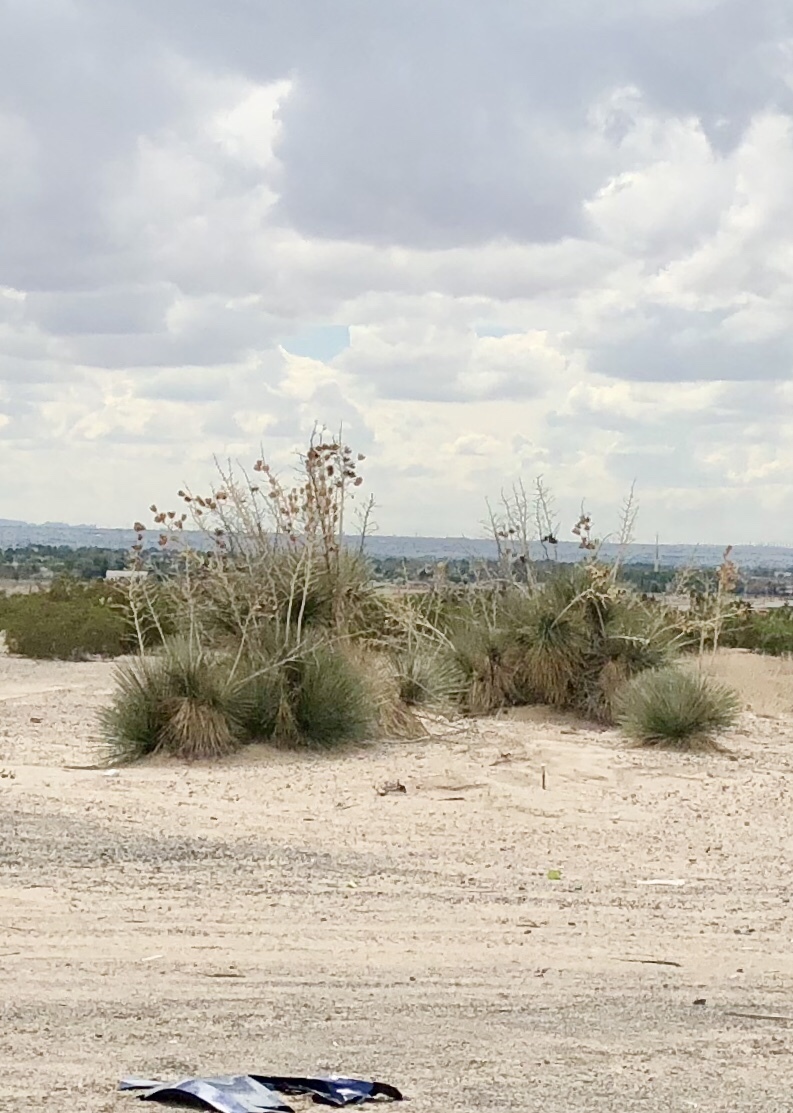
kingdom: Plantae
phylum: Tracheophyta
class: Liliopsida
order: Asparagales
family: Asparagaceae
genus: Yucca
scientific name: Yucca elata
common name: Palmella
